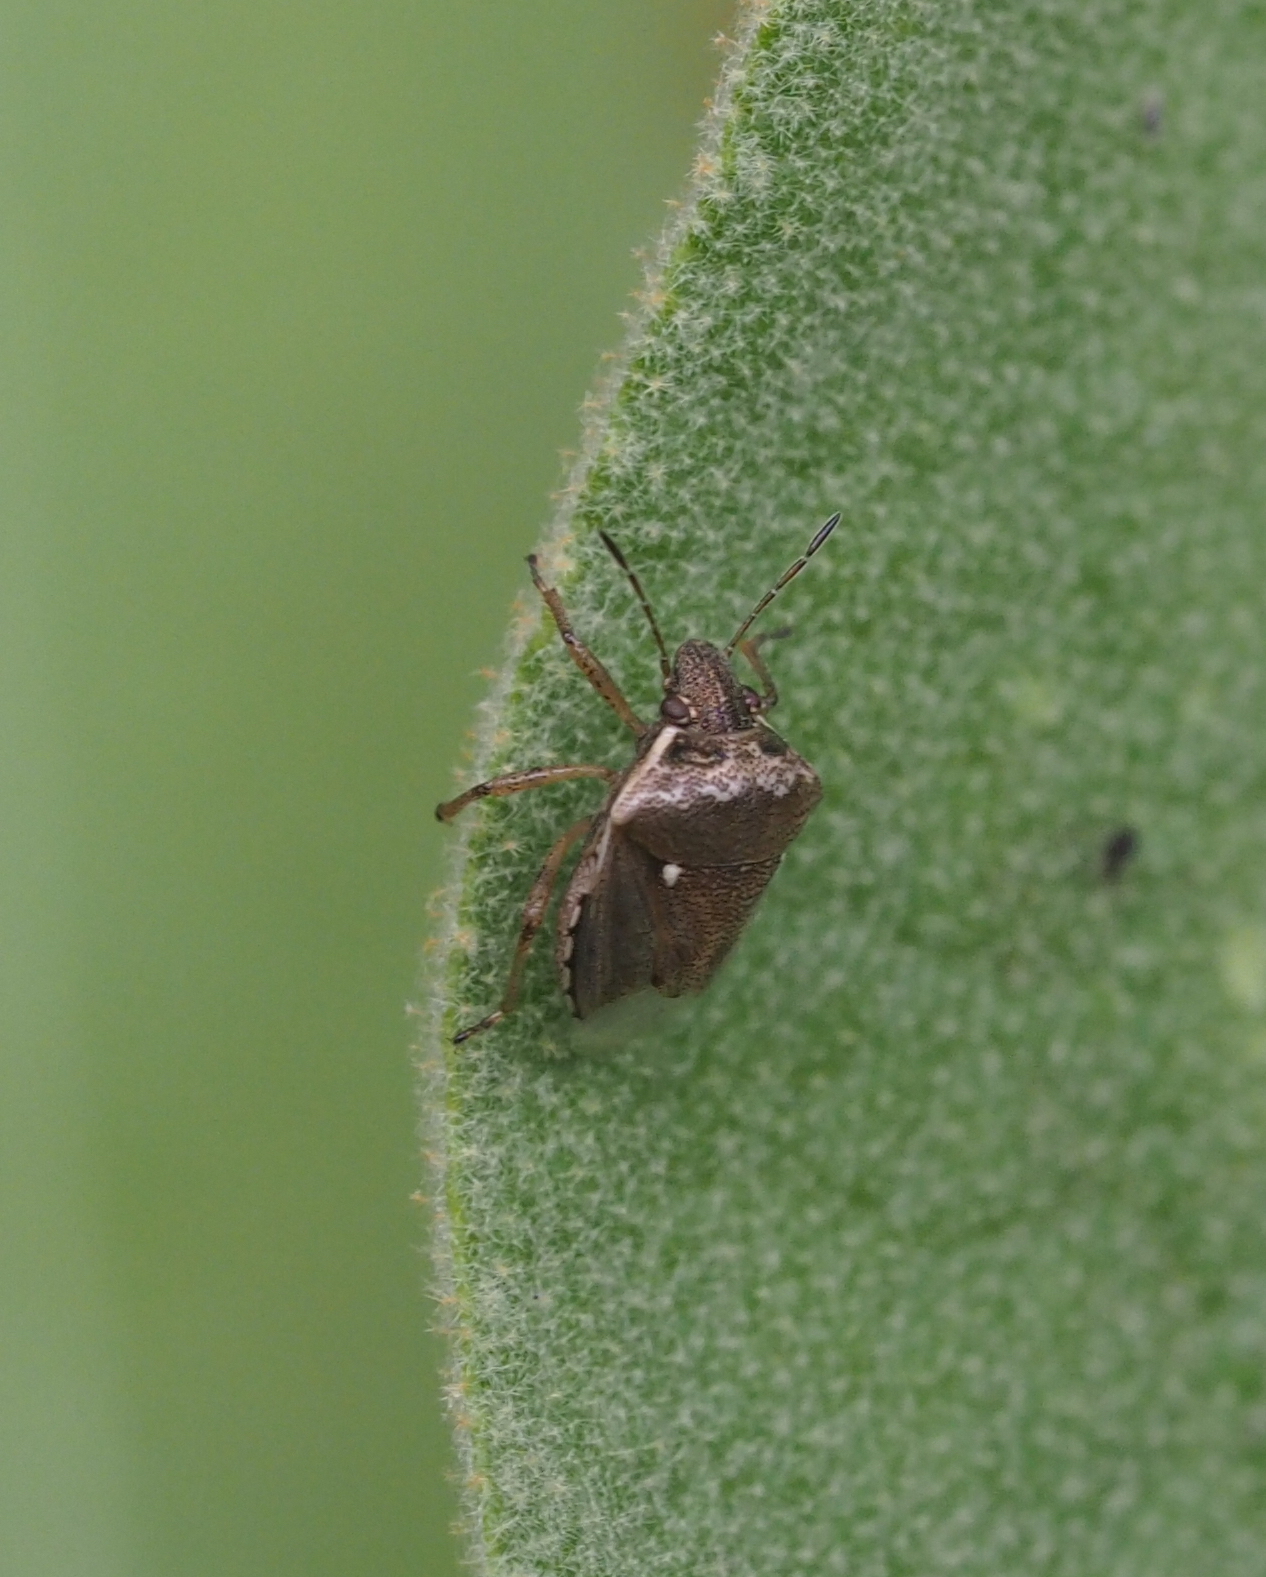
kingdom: Animalia
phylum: Arthropoda
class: Insecta
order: Hemiptera
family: Pentatomidae
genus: Eysarcoris
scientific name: Eysarcoris ventralis
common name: White-spotted stink bug
